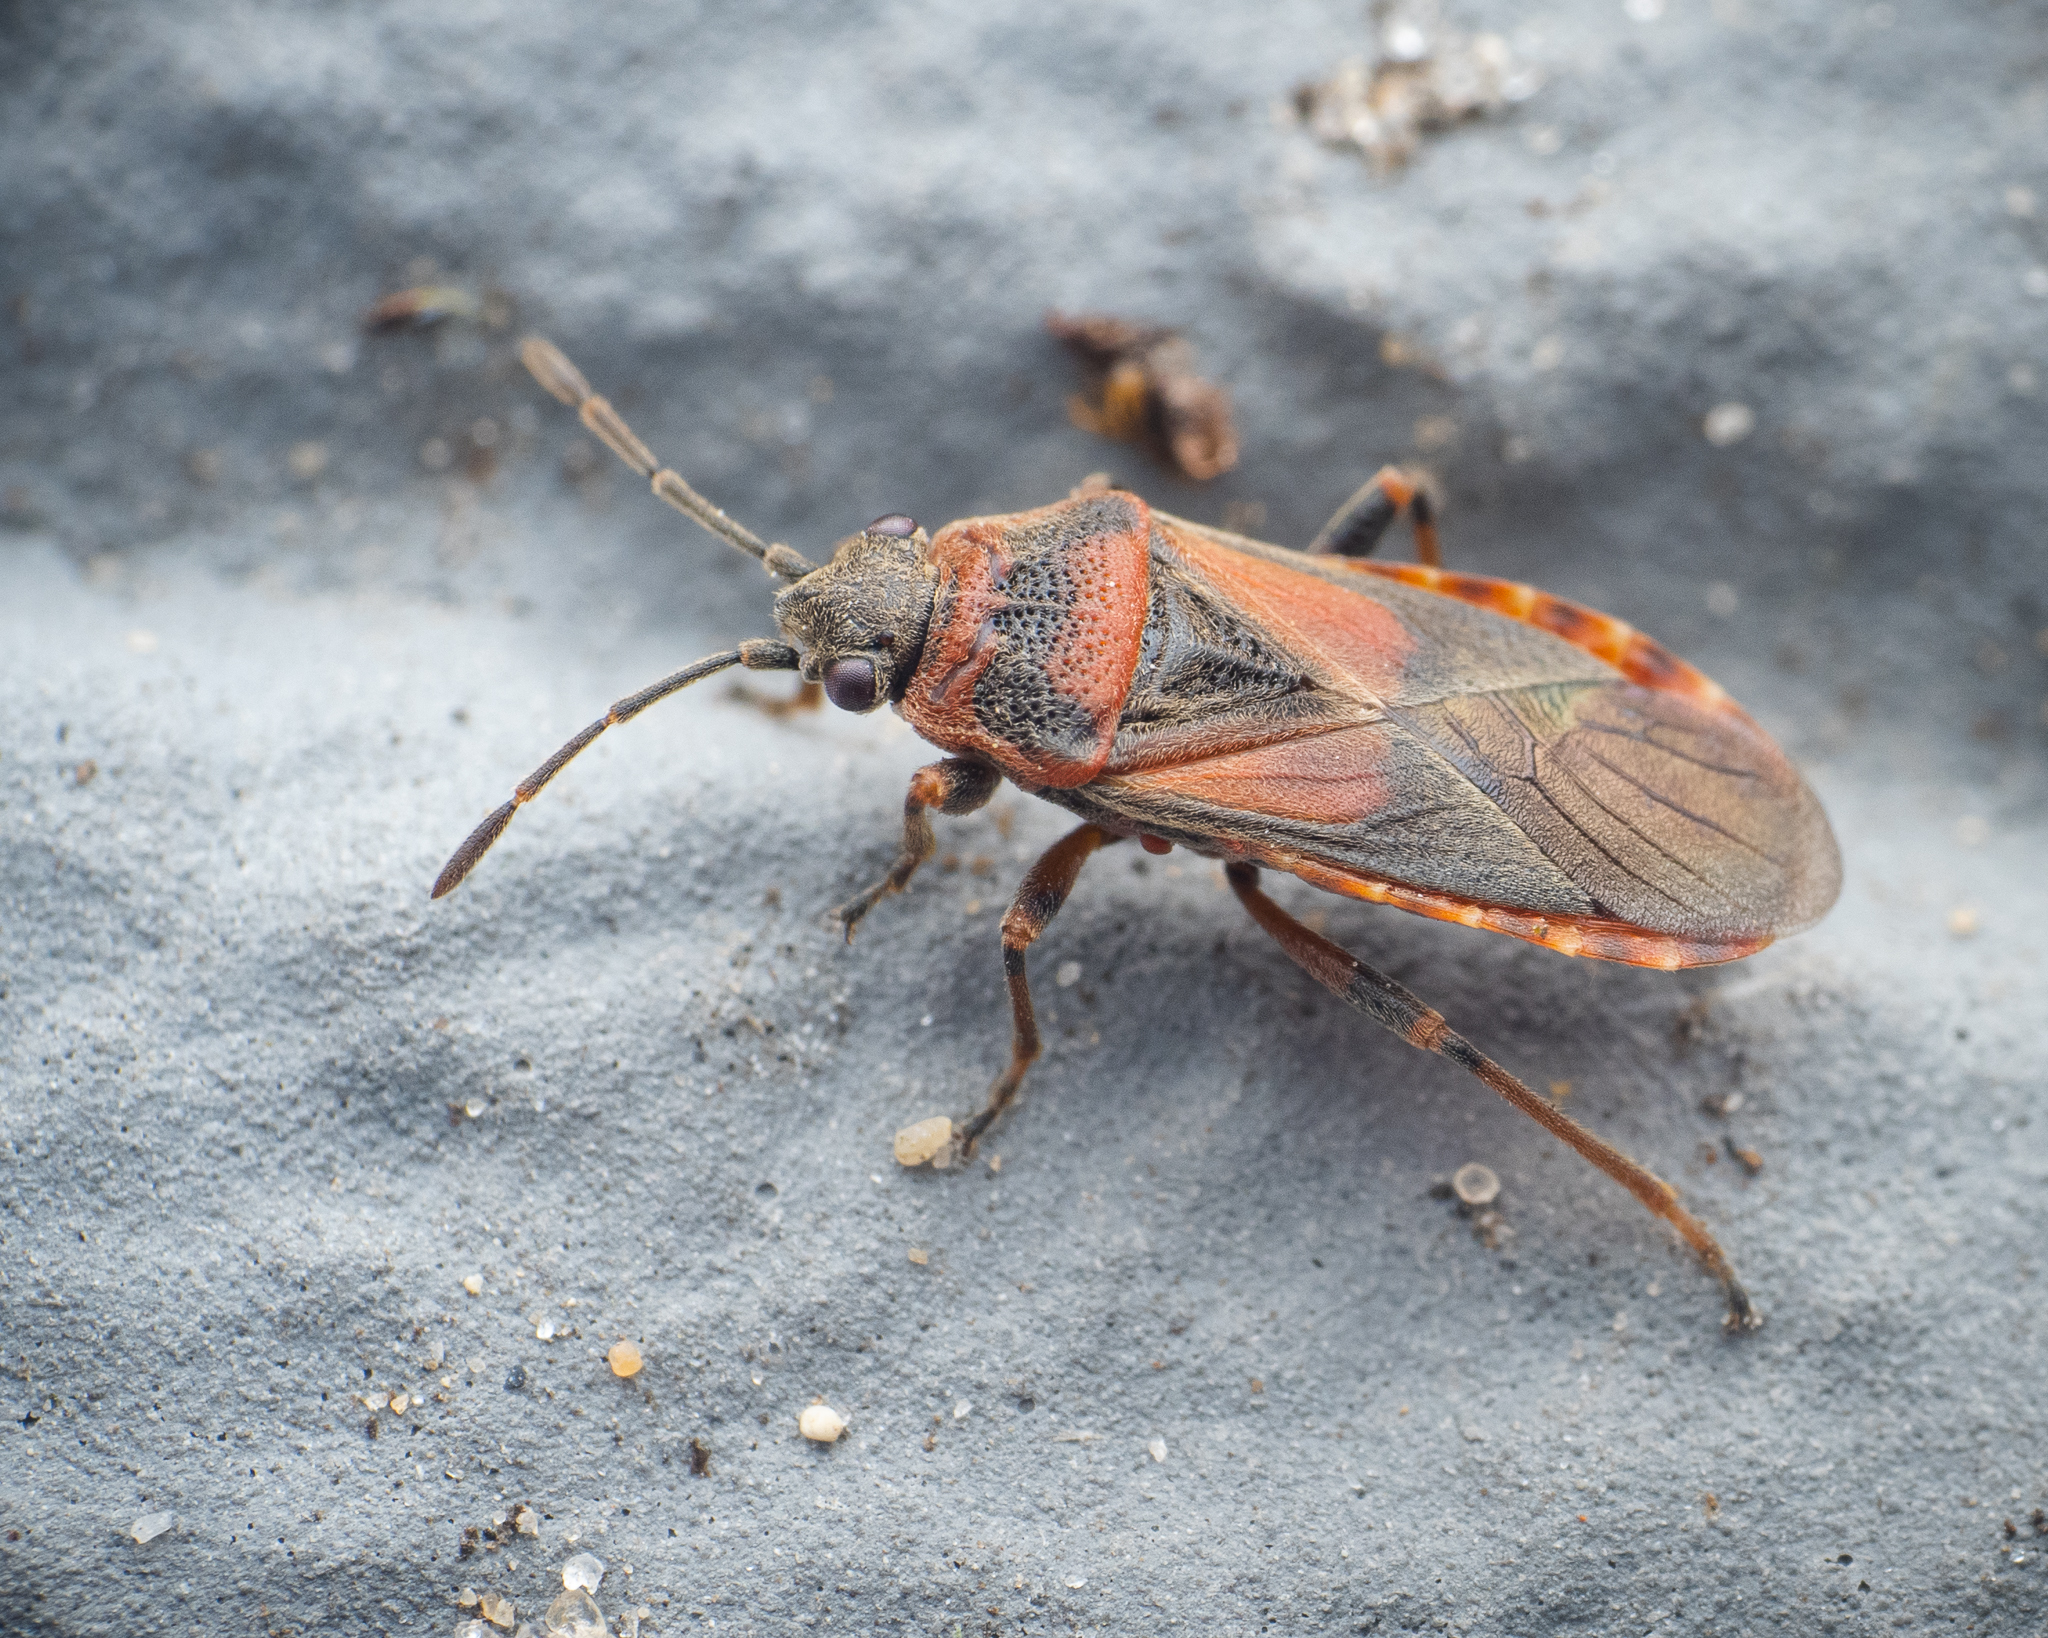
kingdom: Animalia
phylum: Arthropoda
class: Insecta
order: Hemiptera
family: Lygaeidae
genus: Arocatus
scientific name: Arocatus melanocephalus
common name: Lygaeid bug
